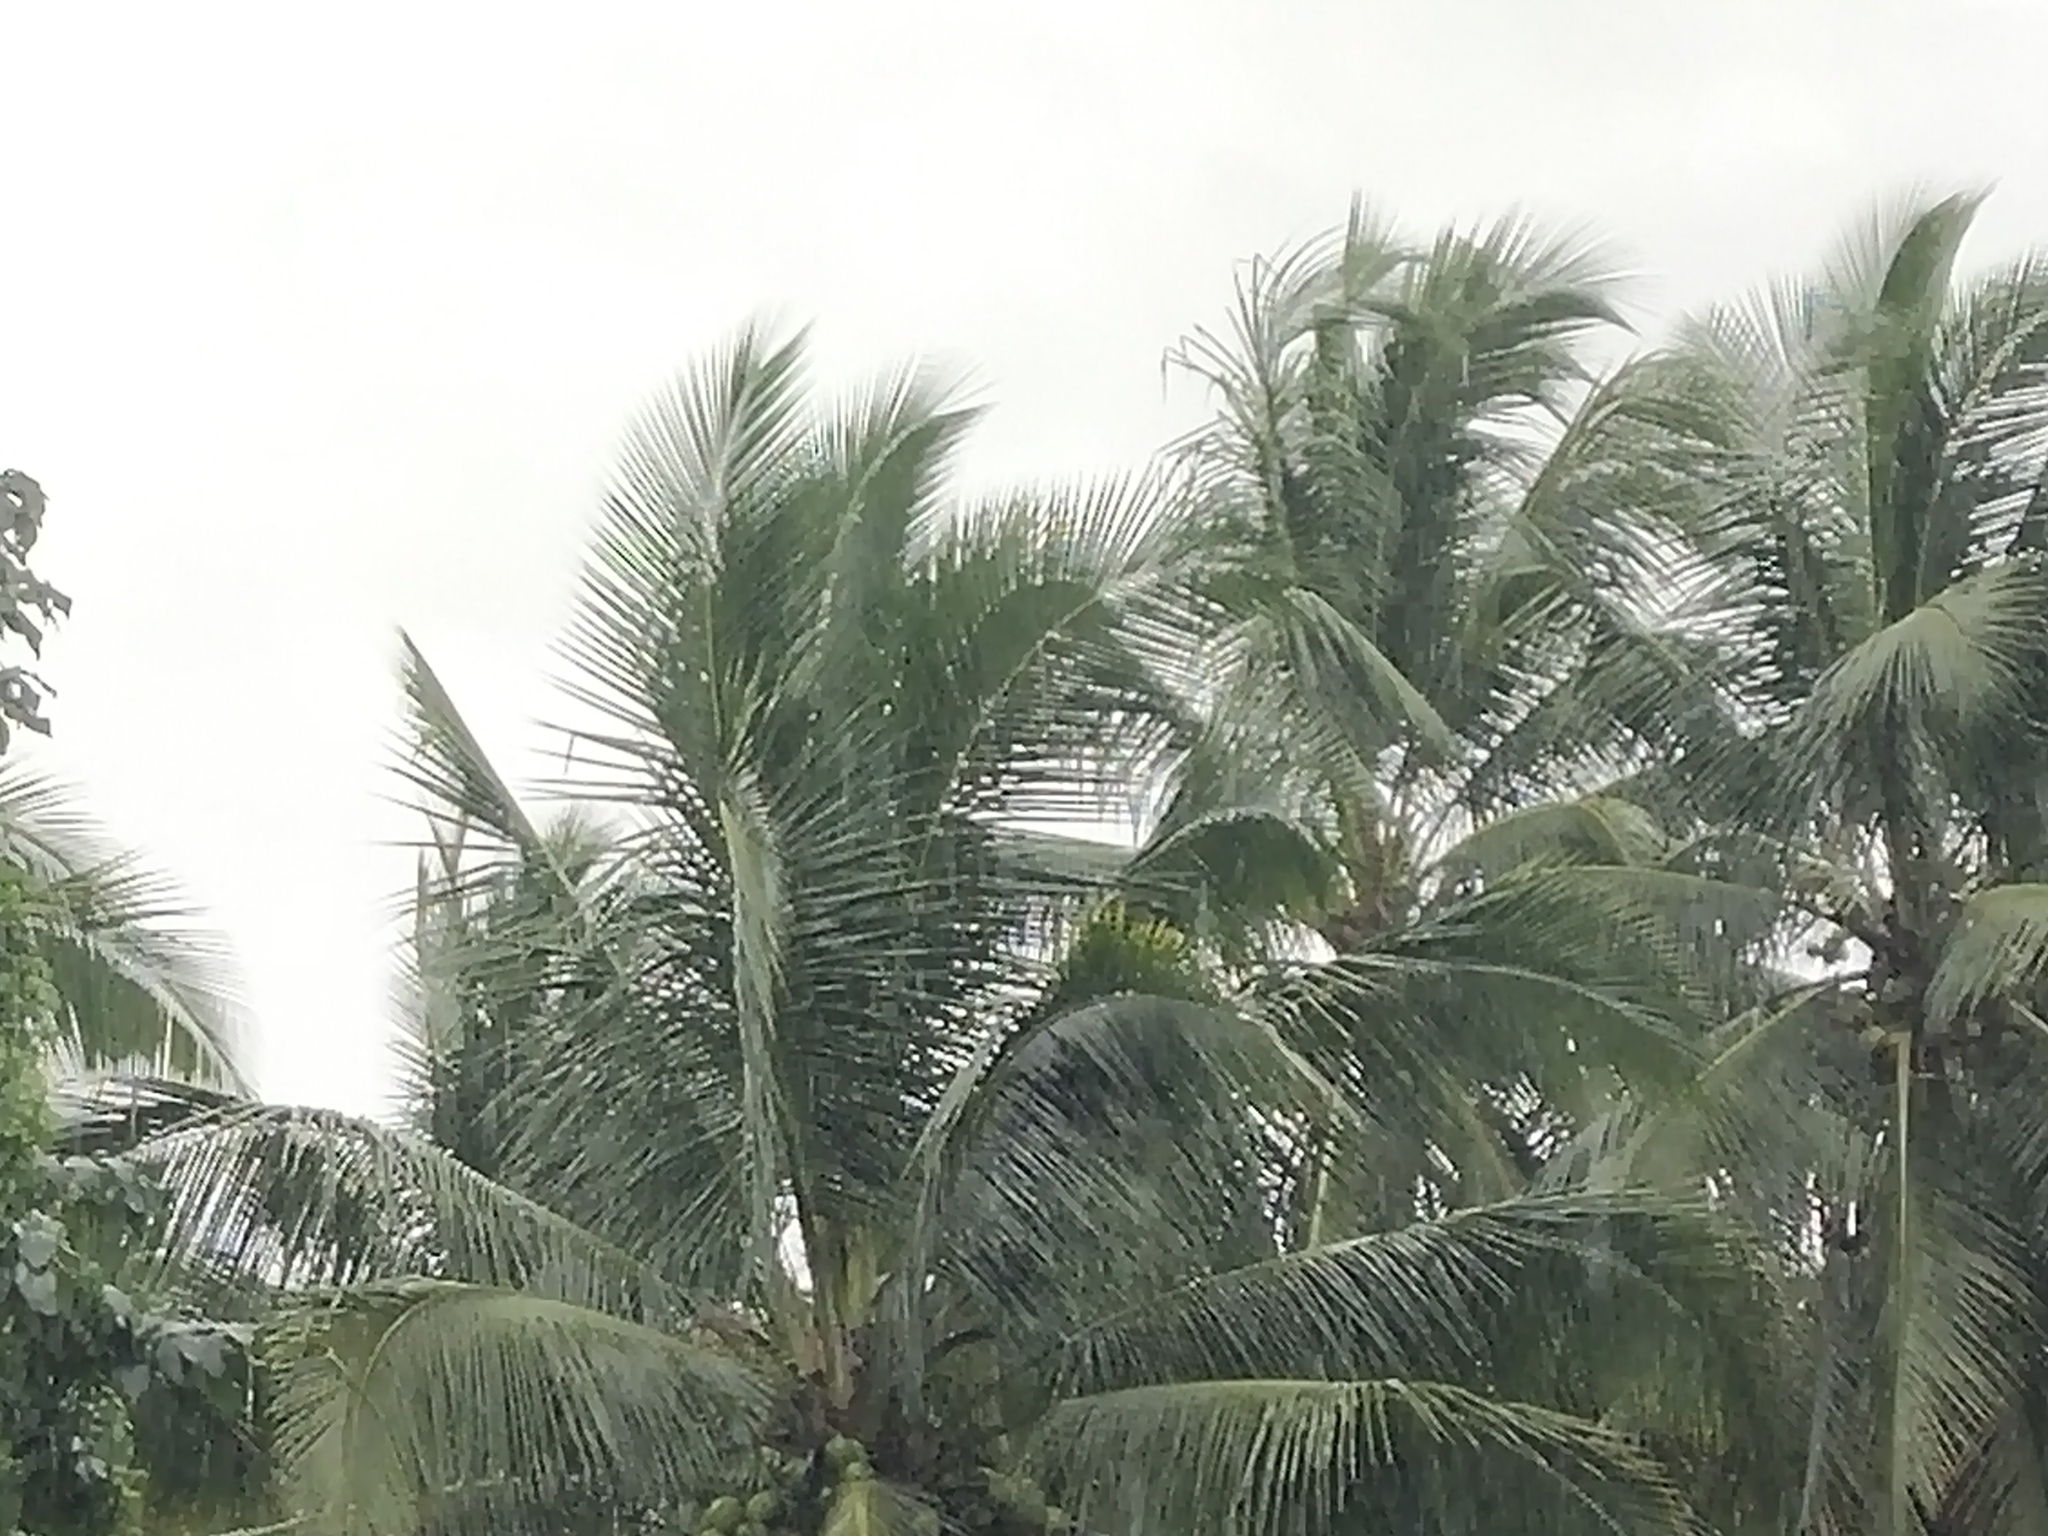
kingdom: Plantae
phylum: Tracheophyta
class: Liliopsida
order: Arecales
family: Arecaceae
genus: Cocos
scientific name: Cocos nucifera
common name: Coconut palm
